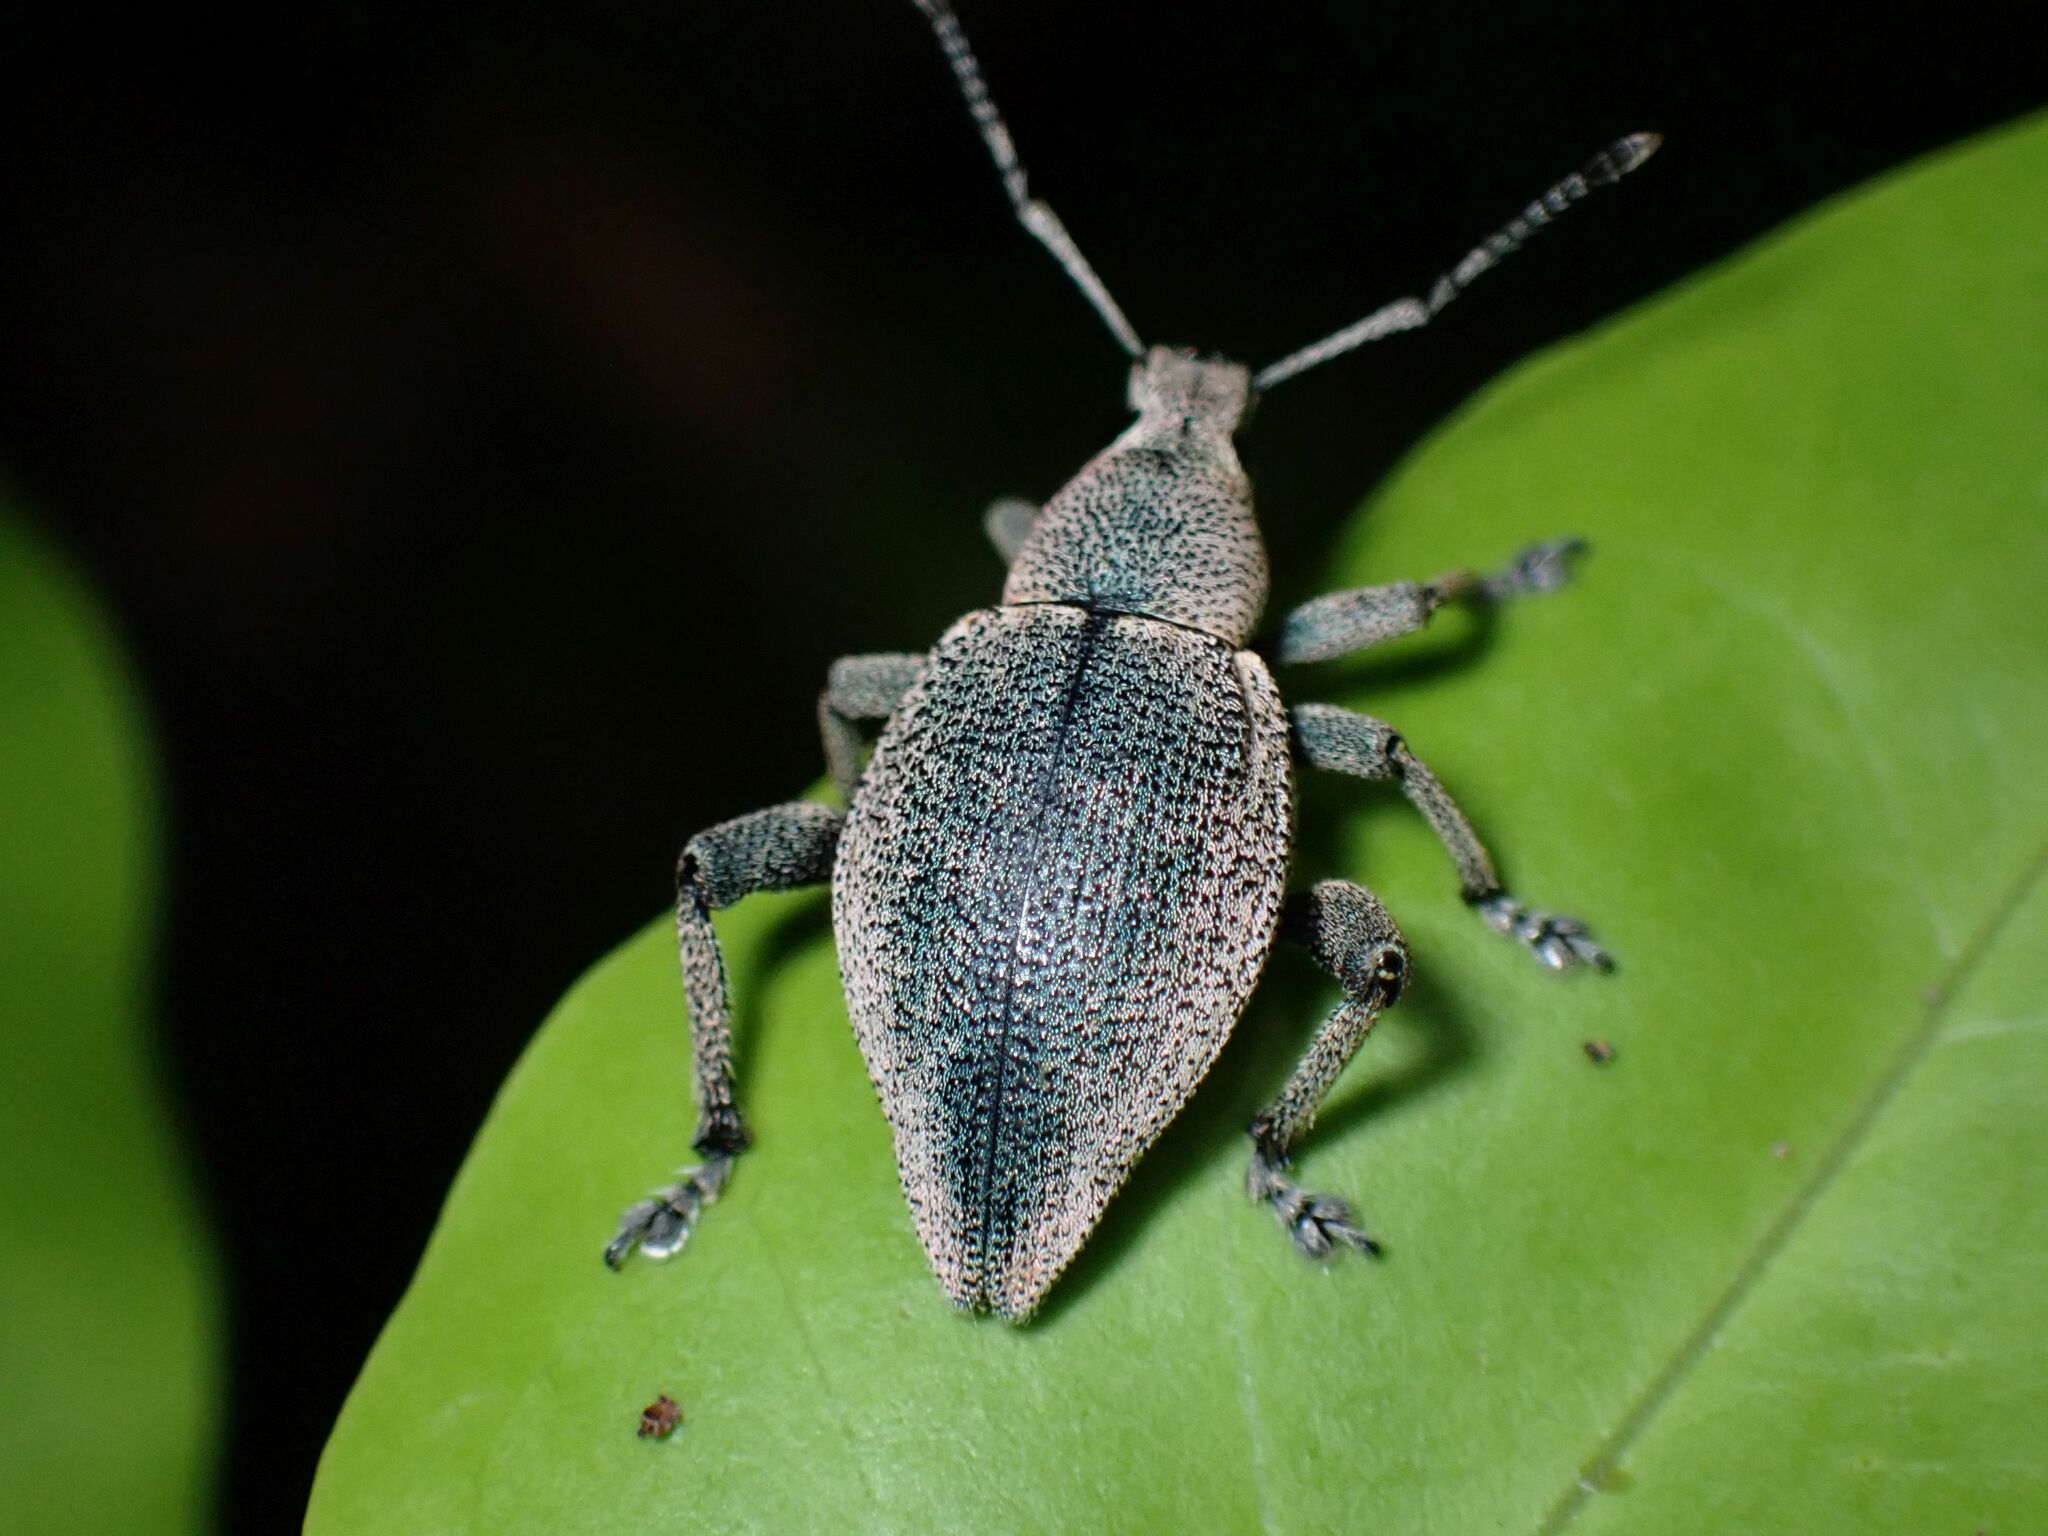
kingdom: Animalia
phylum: Arthropoda
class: Insecta
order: Coleoptera
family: Curculionidae
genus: Elytrurus
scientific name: Elytrurus marginatus
